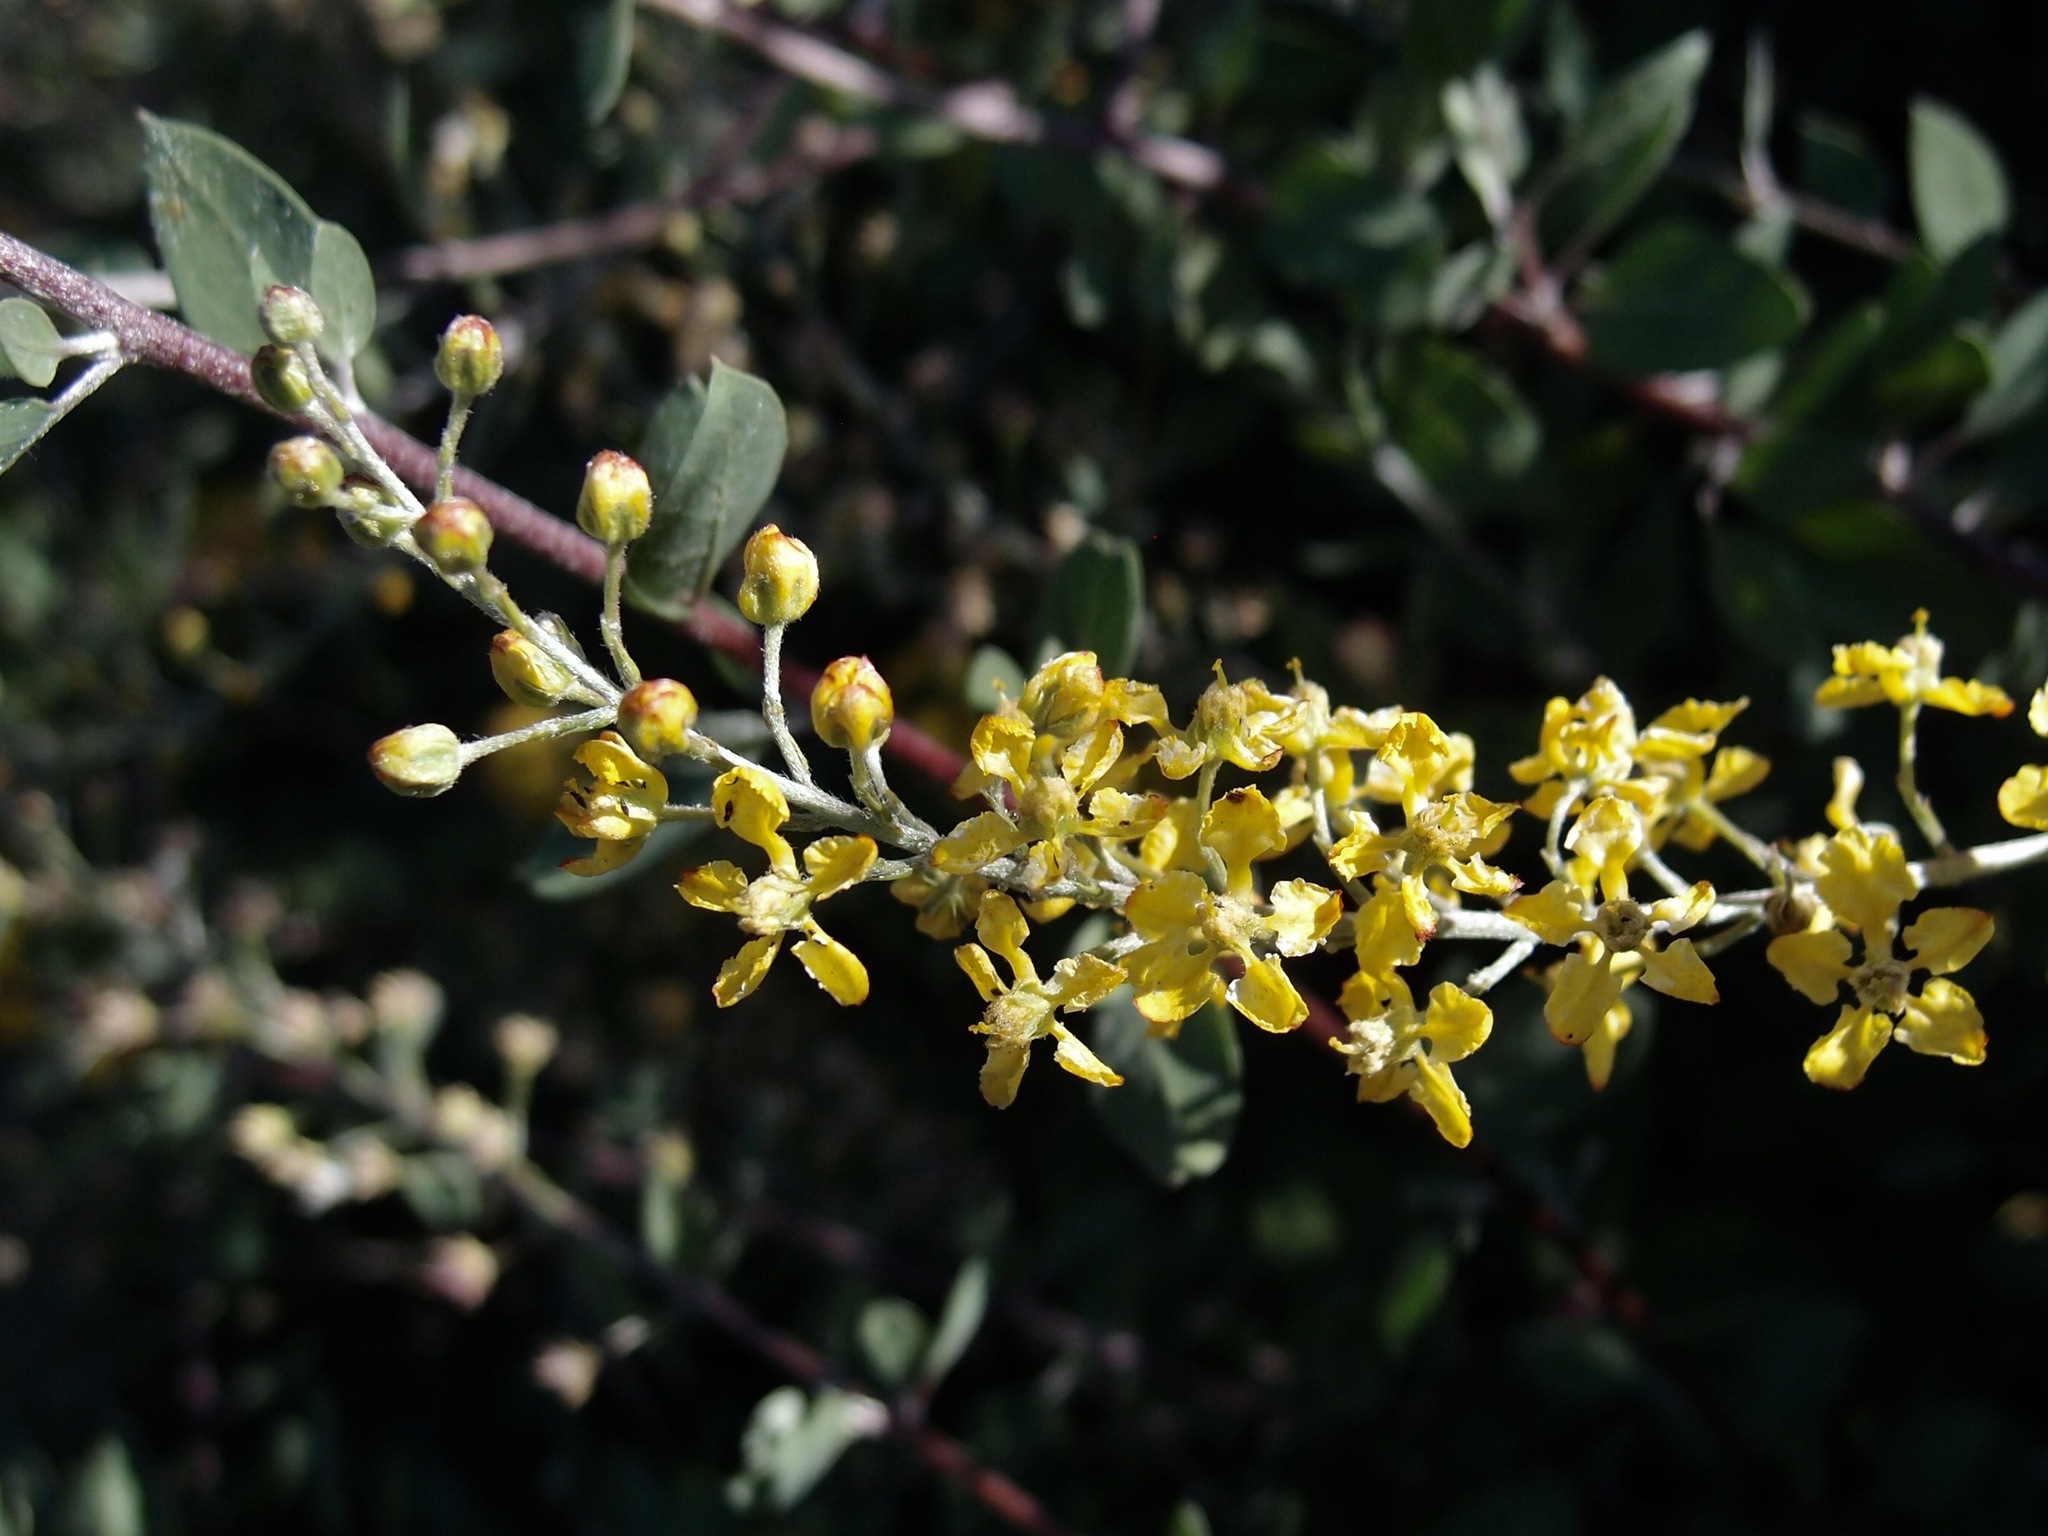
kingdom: Plantae
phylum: Tracheophyta
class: Magnoliopsida
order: Malpighiales
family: Malpighiaceae
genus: Echinopterys
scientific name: Echinopterys eglandulosa
